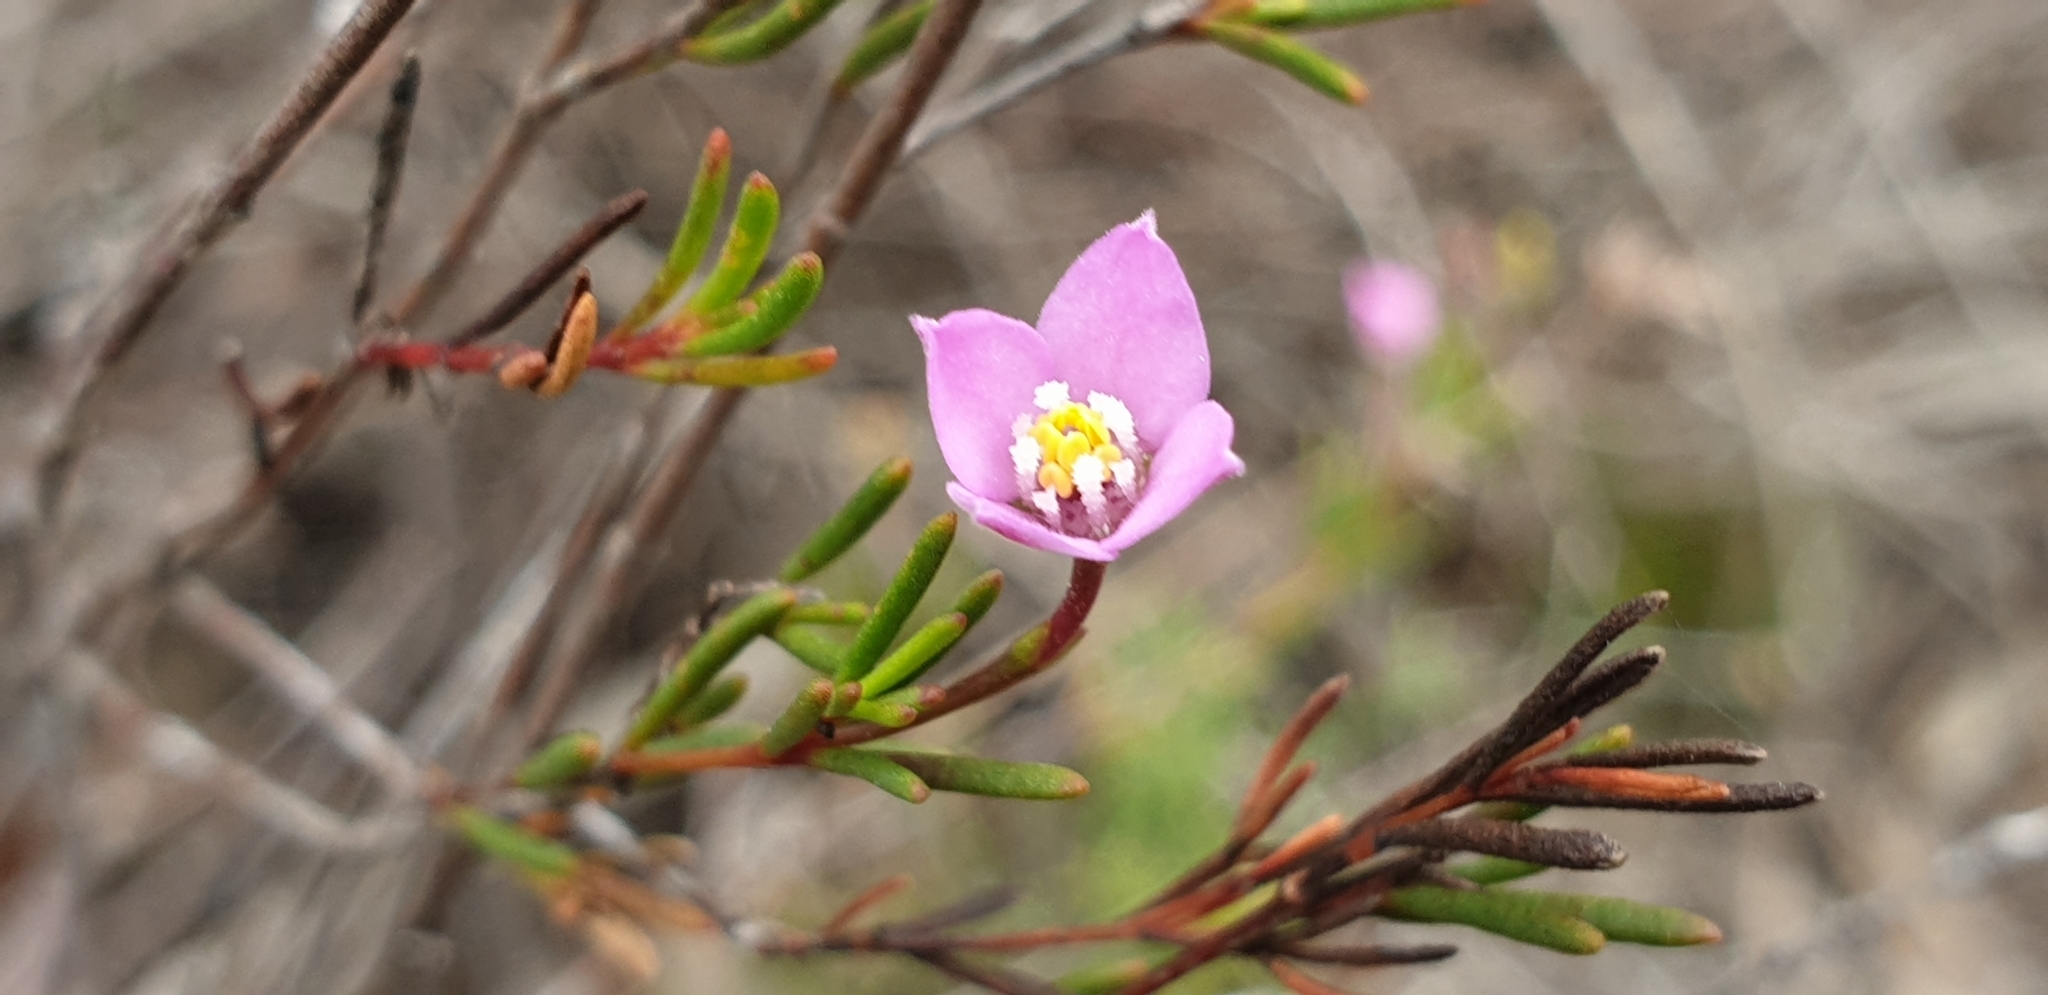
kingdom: Plantae
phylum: Tracheophyta
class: Magnoliopsida
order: Sapindales
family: Rutaceae
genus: Boronia
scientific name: Boronia filifolia
